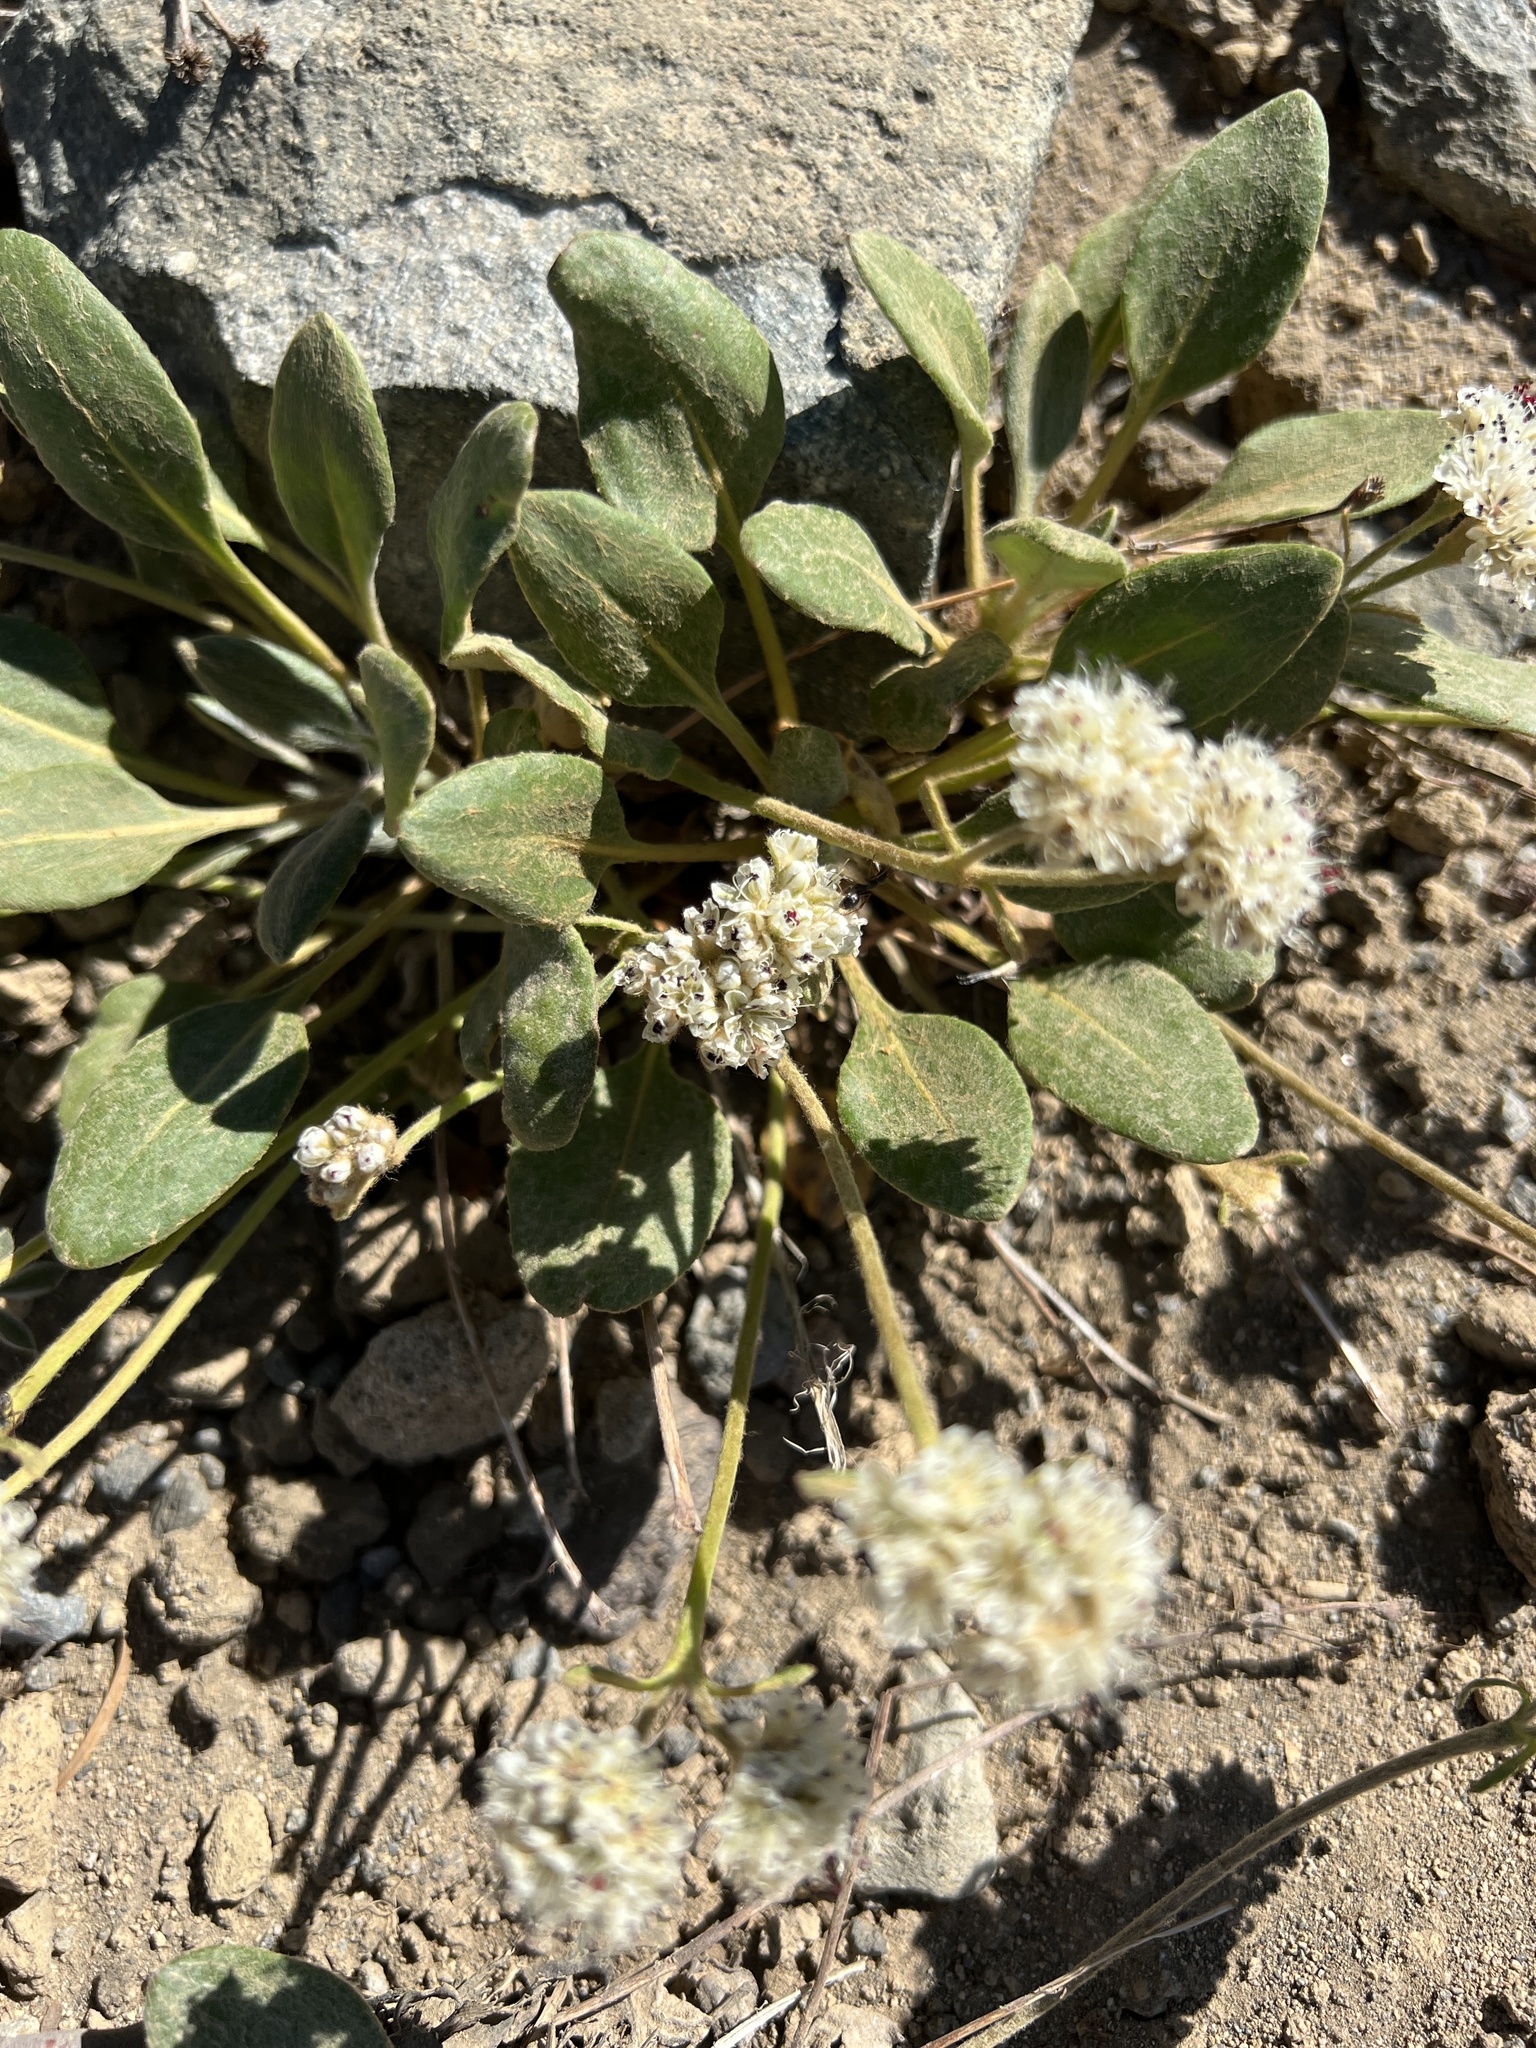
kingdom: Plantae
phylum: Tracheophyta
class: Magnoliopsida
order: Caryophyllales
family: Polygonaceae
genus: Eriogonum
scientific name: Eriogonum pyrolifolium
